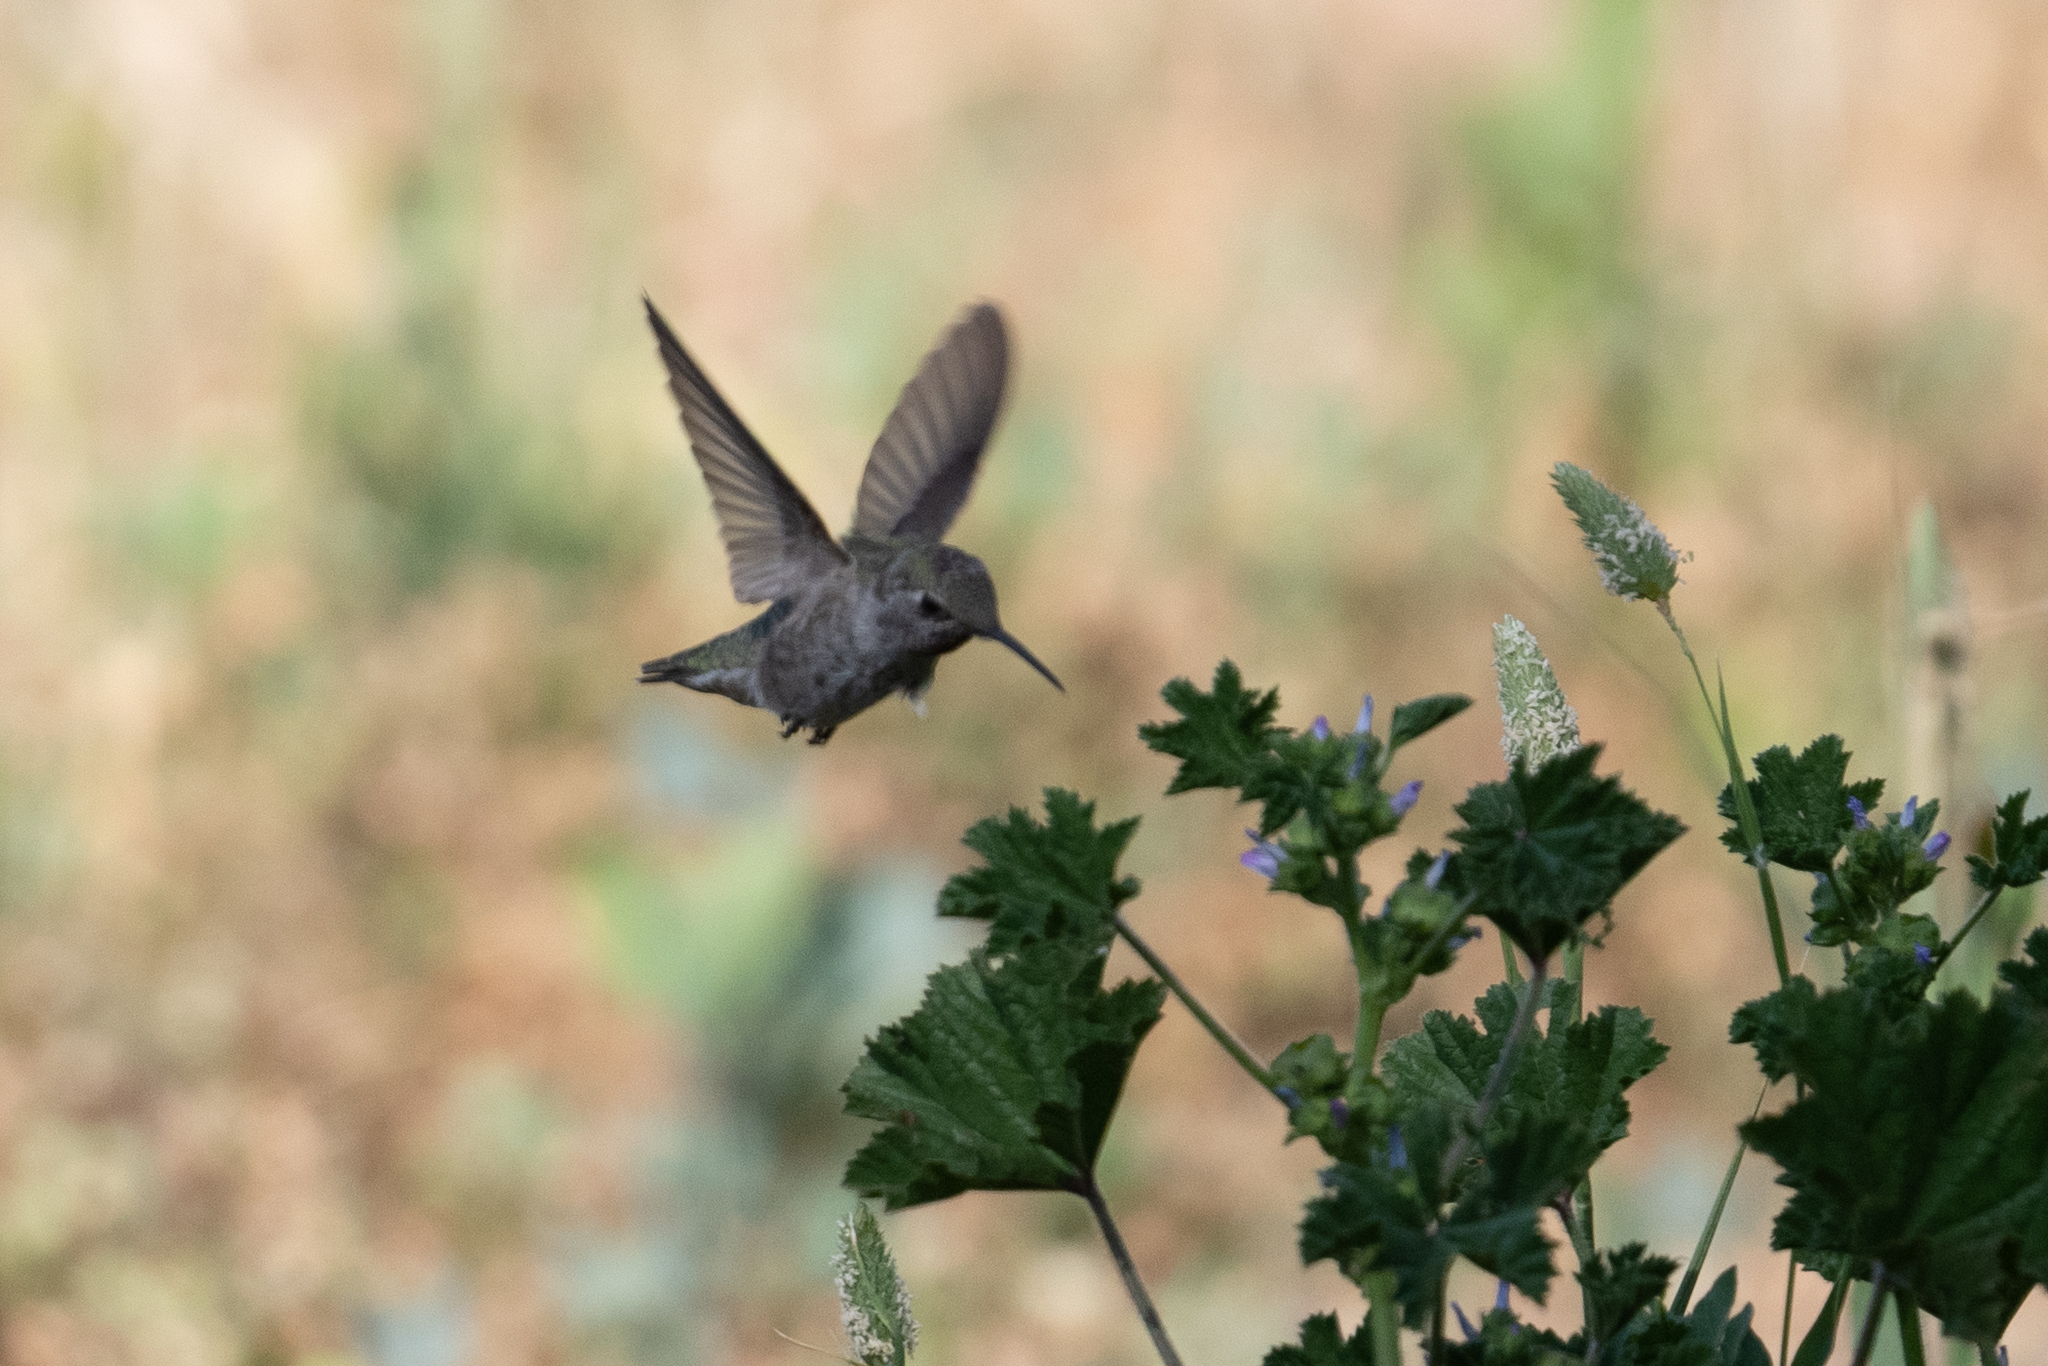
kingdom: Animalia
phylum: Chordata
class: Aves
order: Apodiformes
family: Trochilidae
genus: Calypte
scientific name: Calypte anna
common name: Anna's hummingbird
